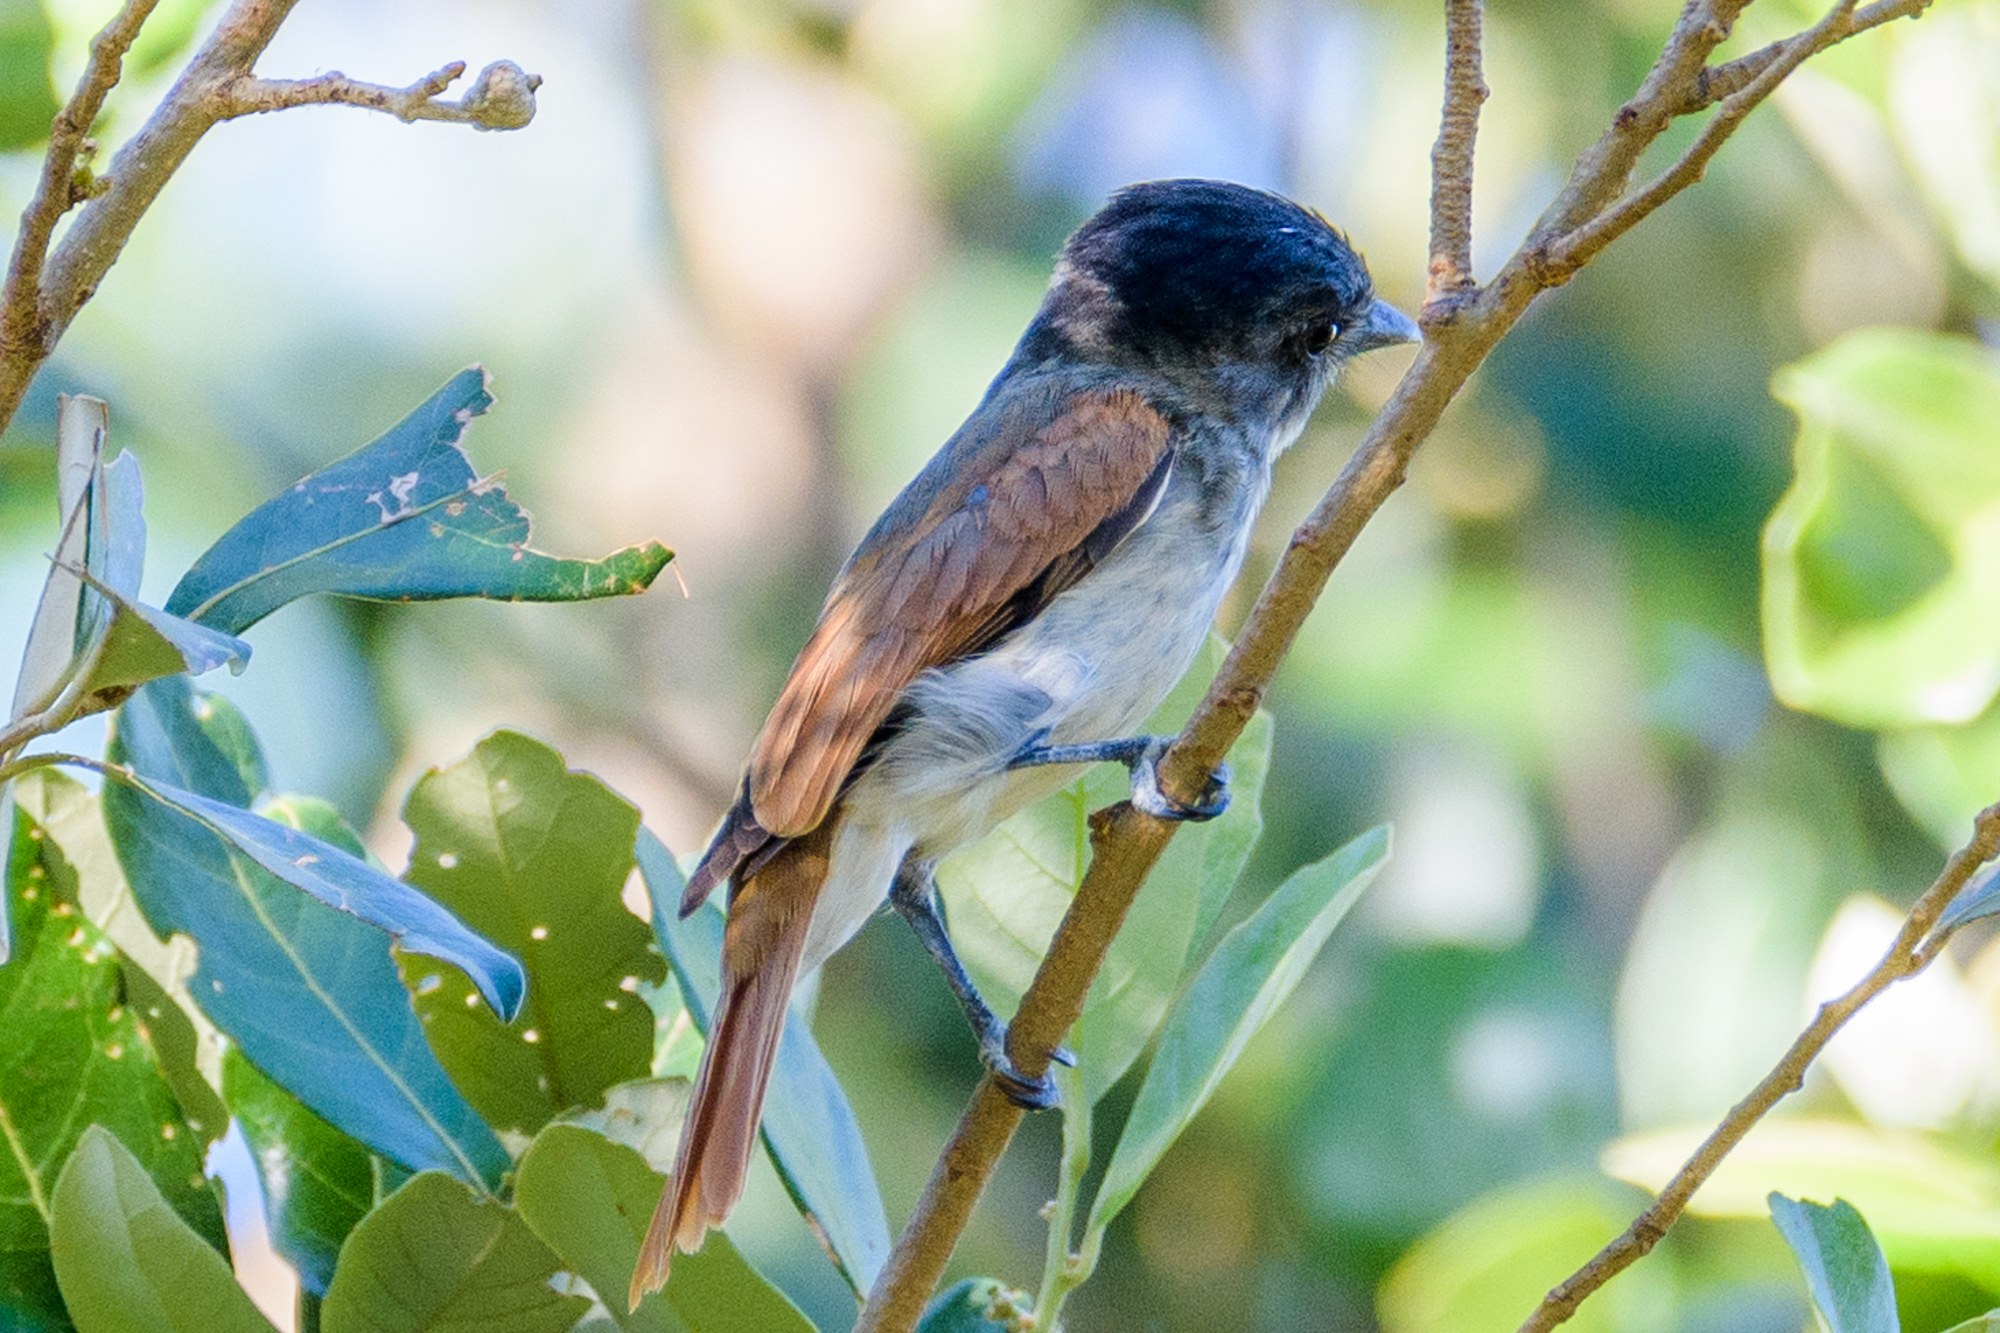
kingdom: Animalia
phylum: Chordata
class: Aves
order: Passeriformes
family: Cotingidae
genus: Pachyramphus
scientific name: Pachyramphus aglaiae
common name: Rose-throated becard
